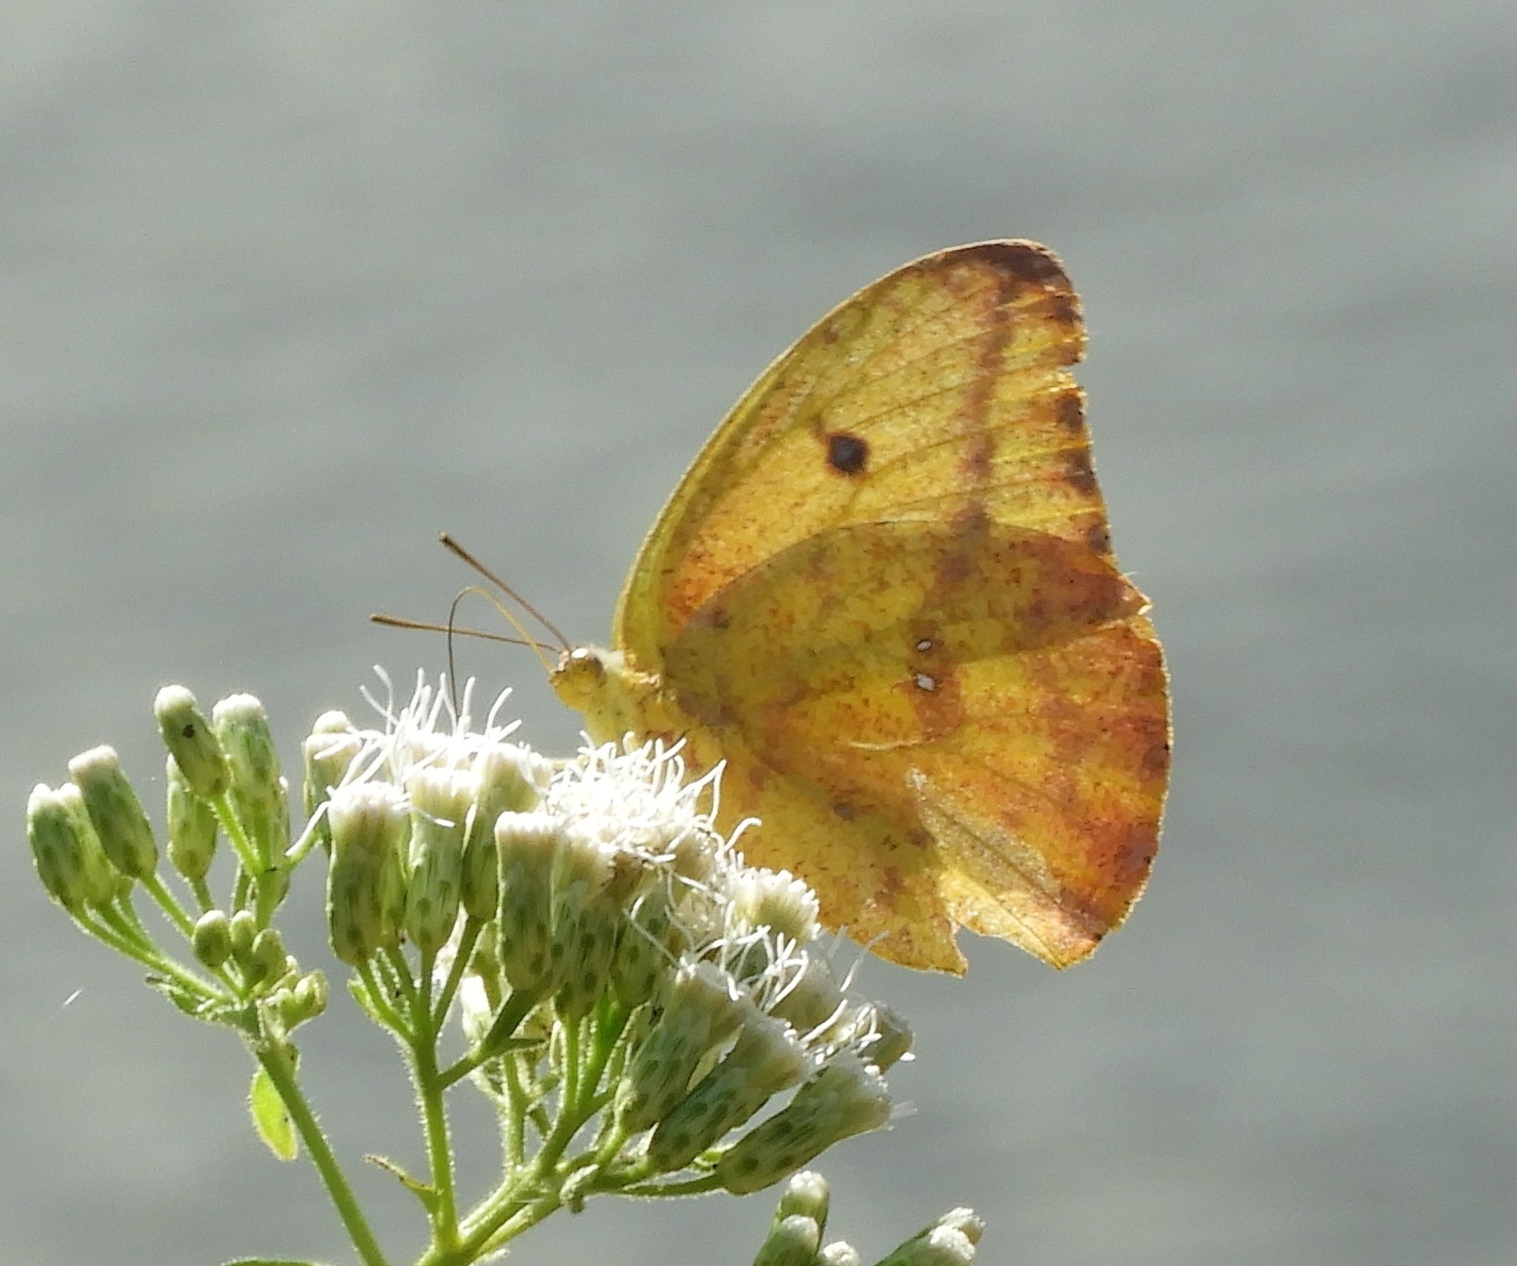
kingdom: Animalia
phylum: Arthropoda
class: Insecta
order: Lepidoptera
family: Pieridae
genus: Phoebis
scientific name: Phoebis agarithe
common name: Large orange sulphur
